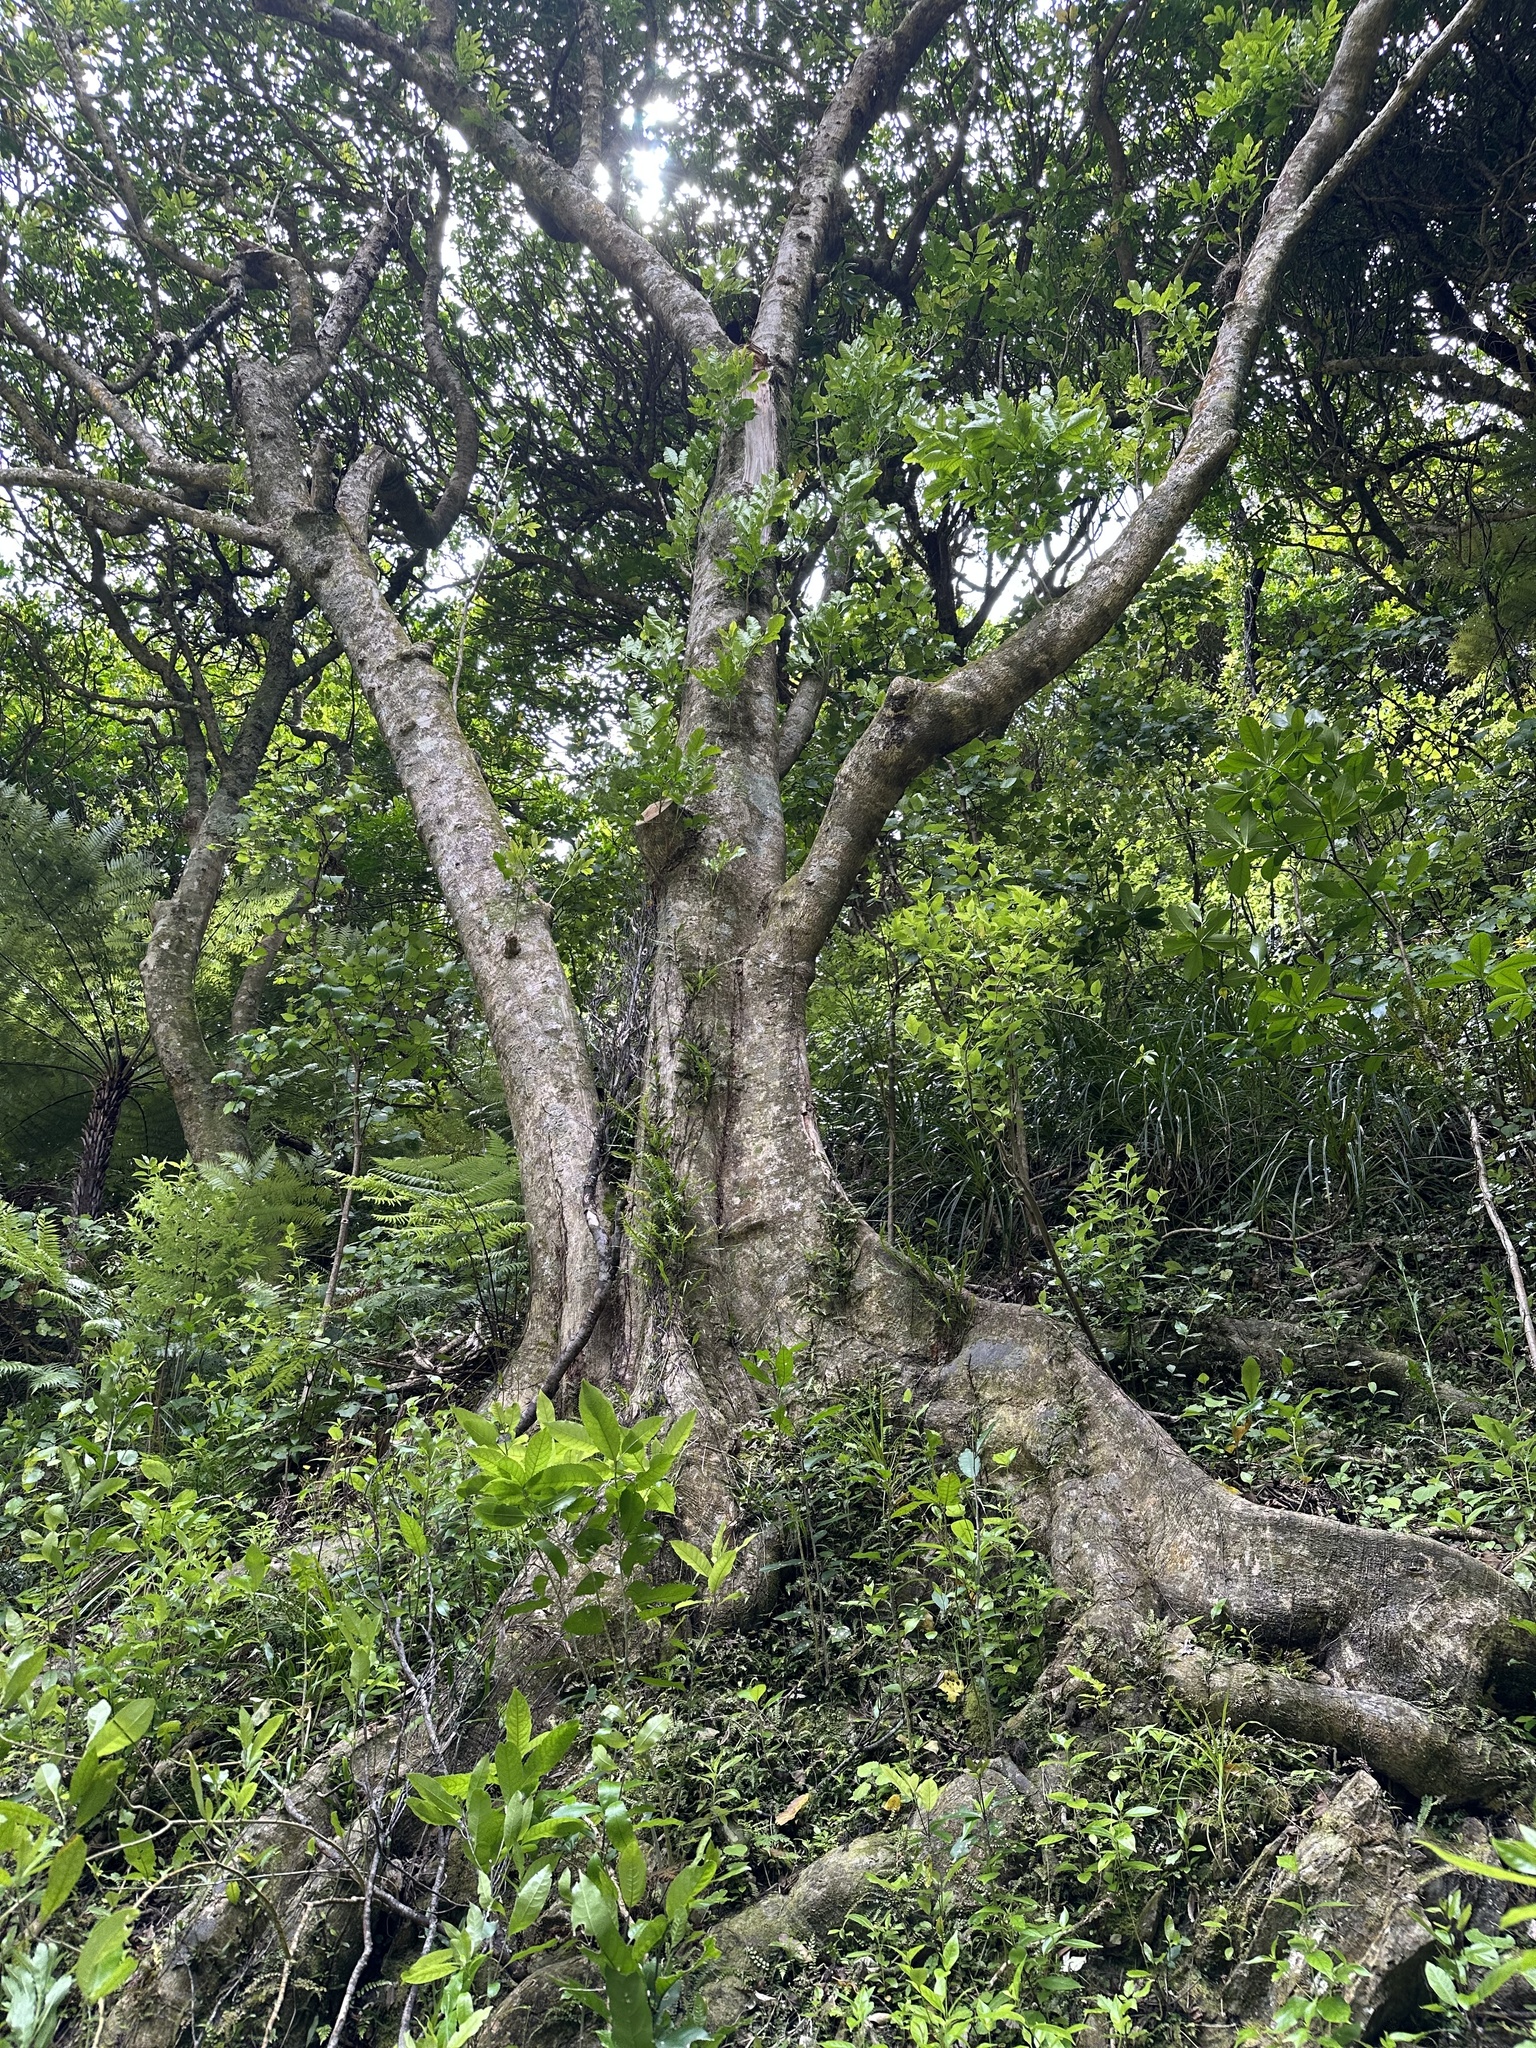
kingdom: Plantae
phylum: Tracheophyta
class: Magnoliopsida
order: Sapindales
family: Meliaceae
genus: Didymocheton
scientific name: Didymocheton spectabilis
